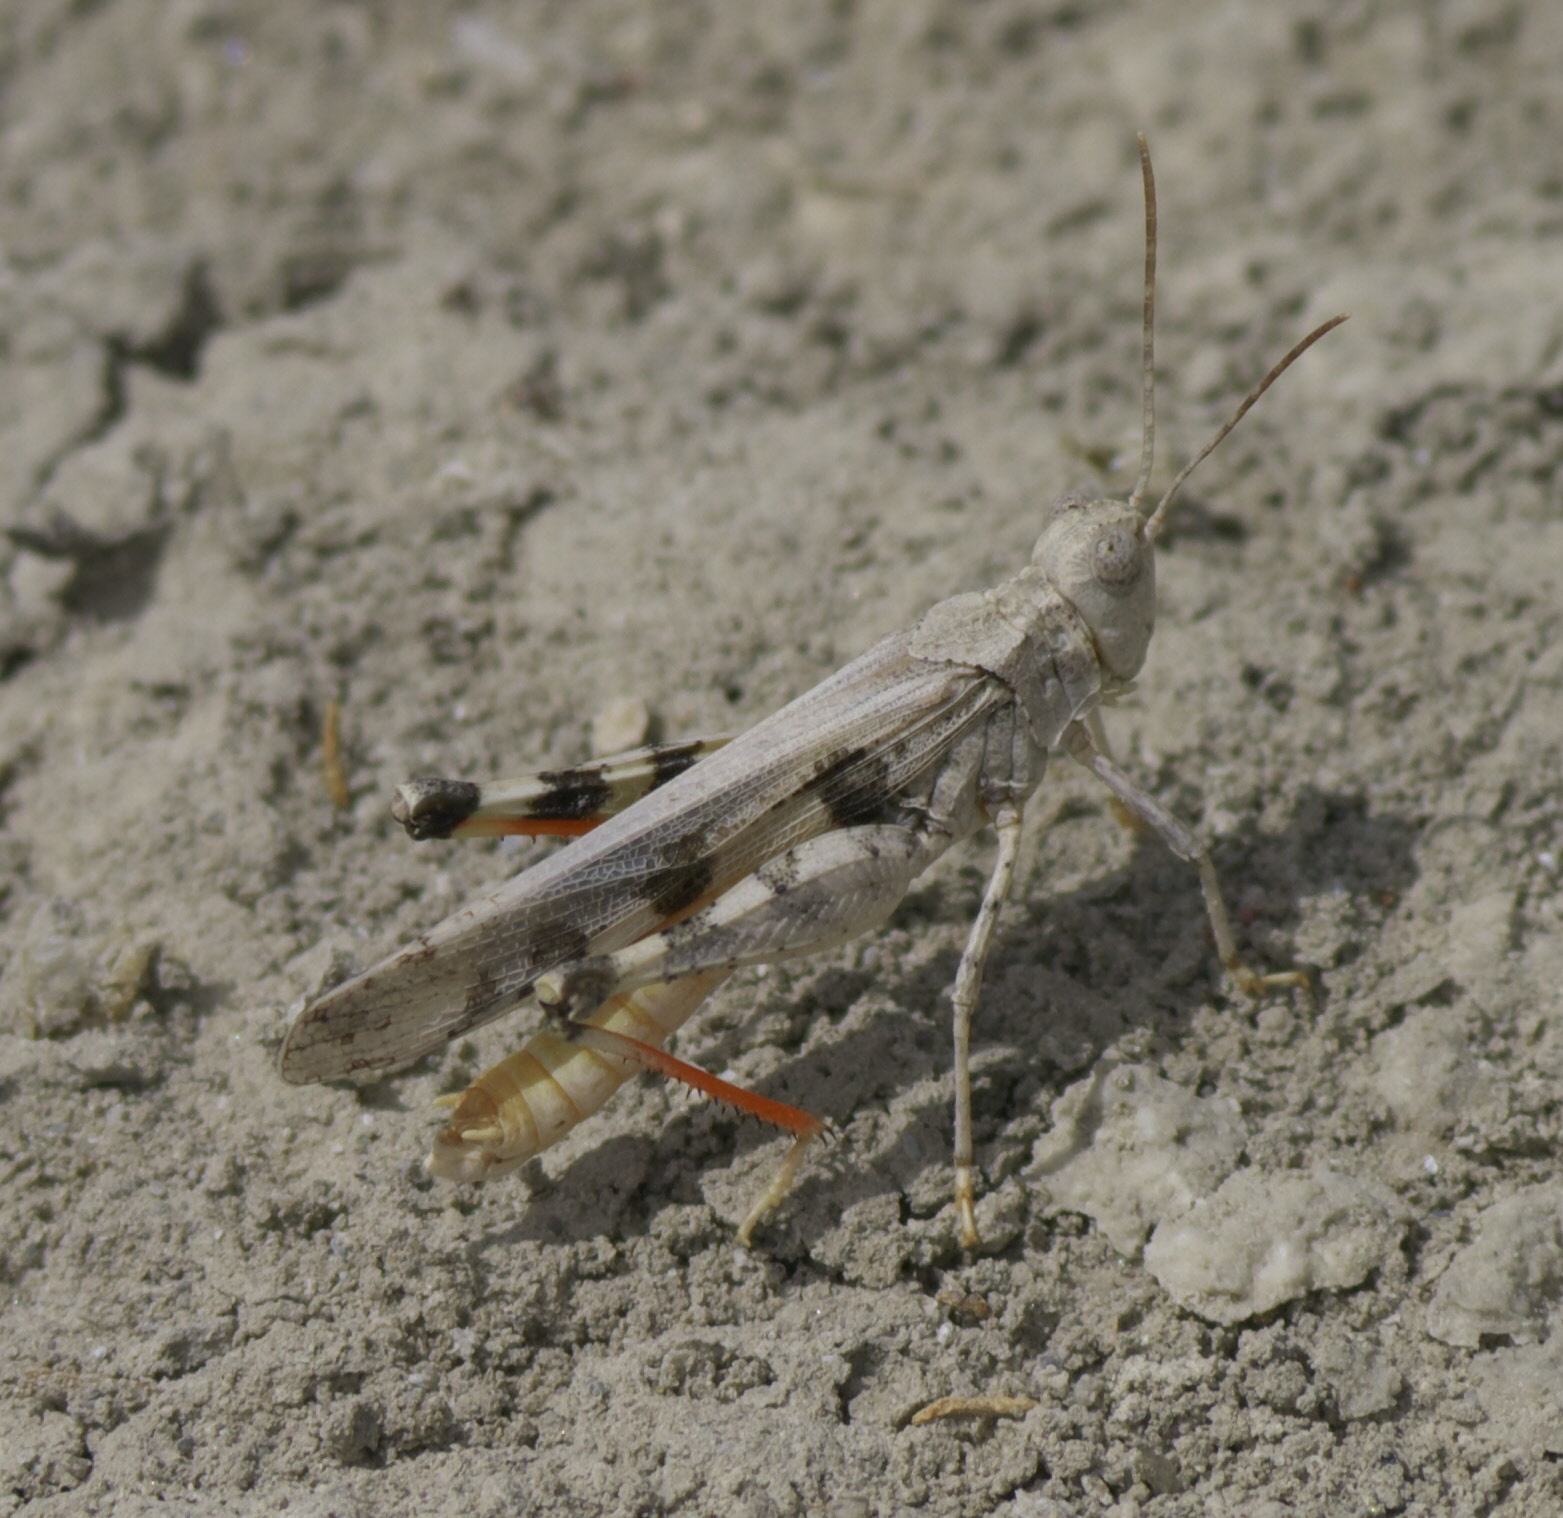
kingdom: Animalia
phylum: Arthropoda
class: Insecta
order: Orthoptera
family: Acrididae
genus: Conozoa
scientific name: Conozoa sulcifrons
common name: Groove-headed grasshopper
